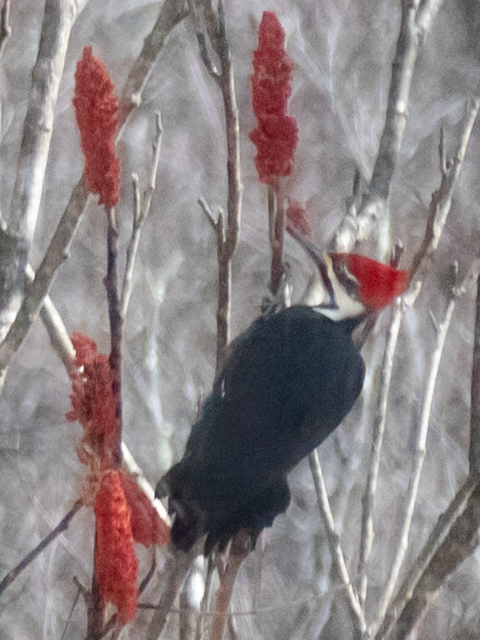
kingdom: Animalia
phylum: Chordata
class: Aves
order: Piciformes
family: Picidae
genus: Dryocopus
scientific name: Dryocopus pileatus
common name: Pileated woodpecker
